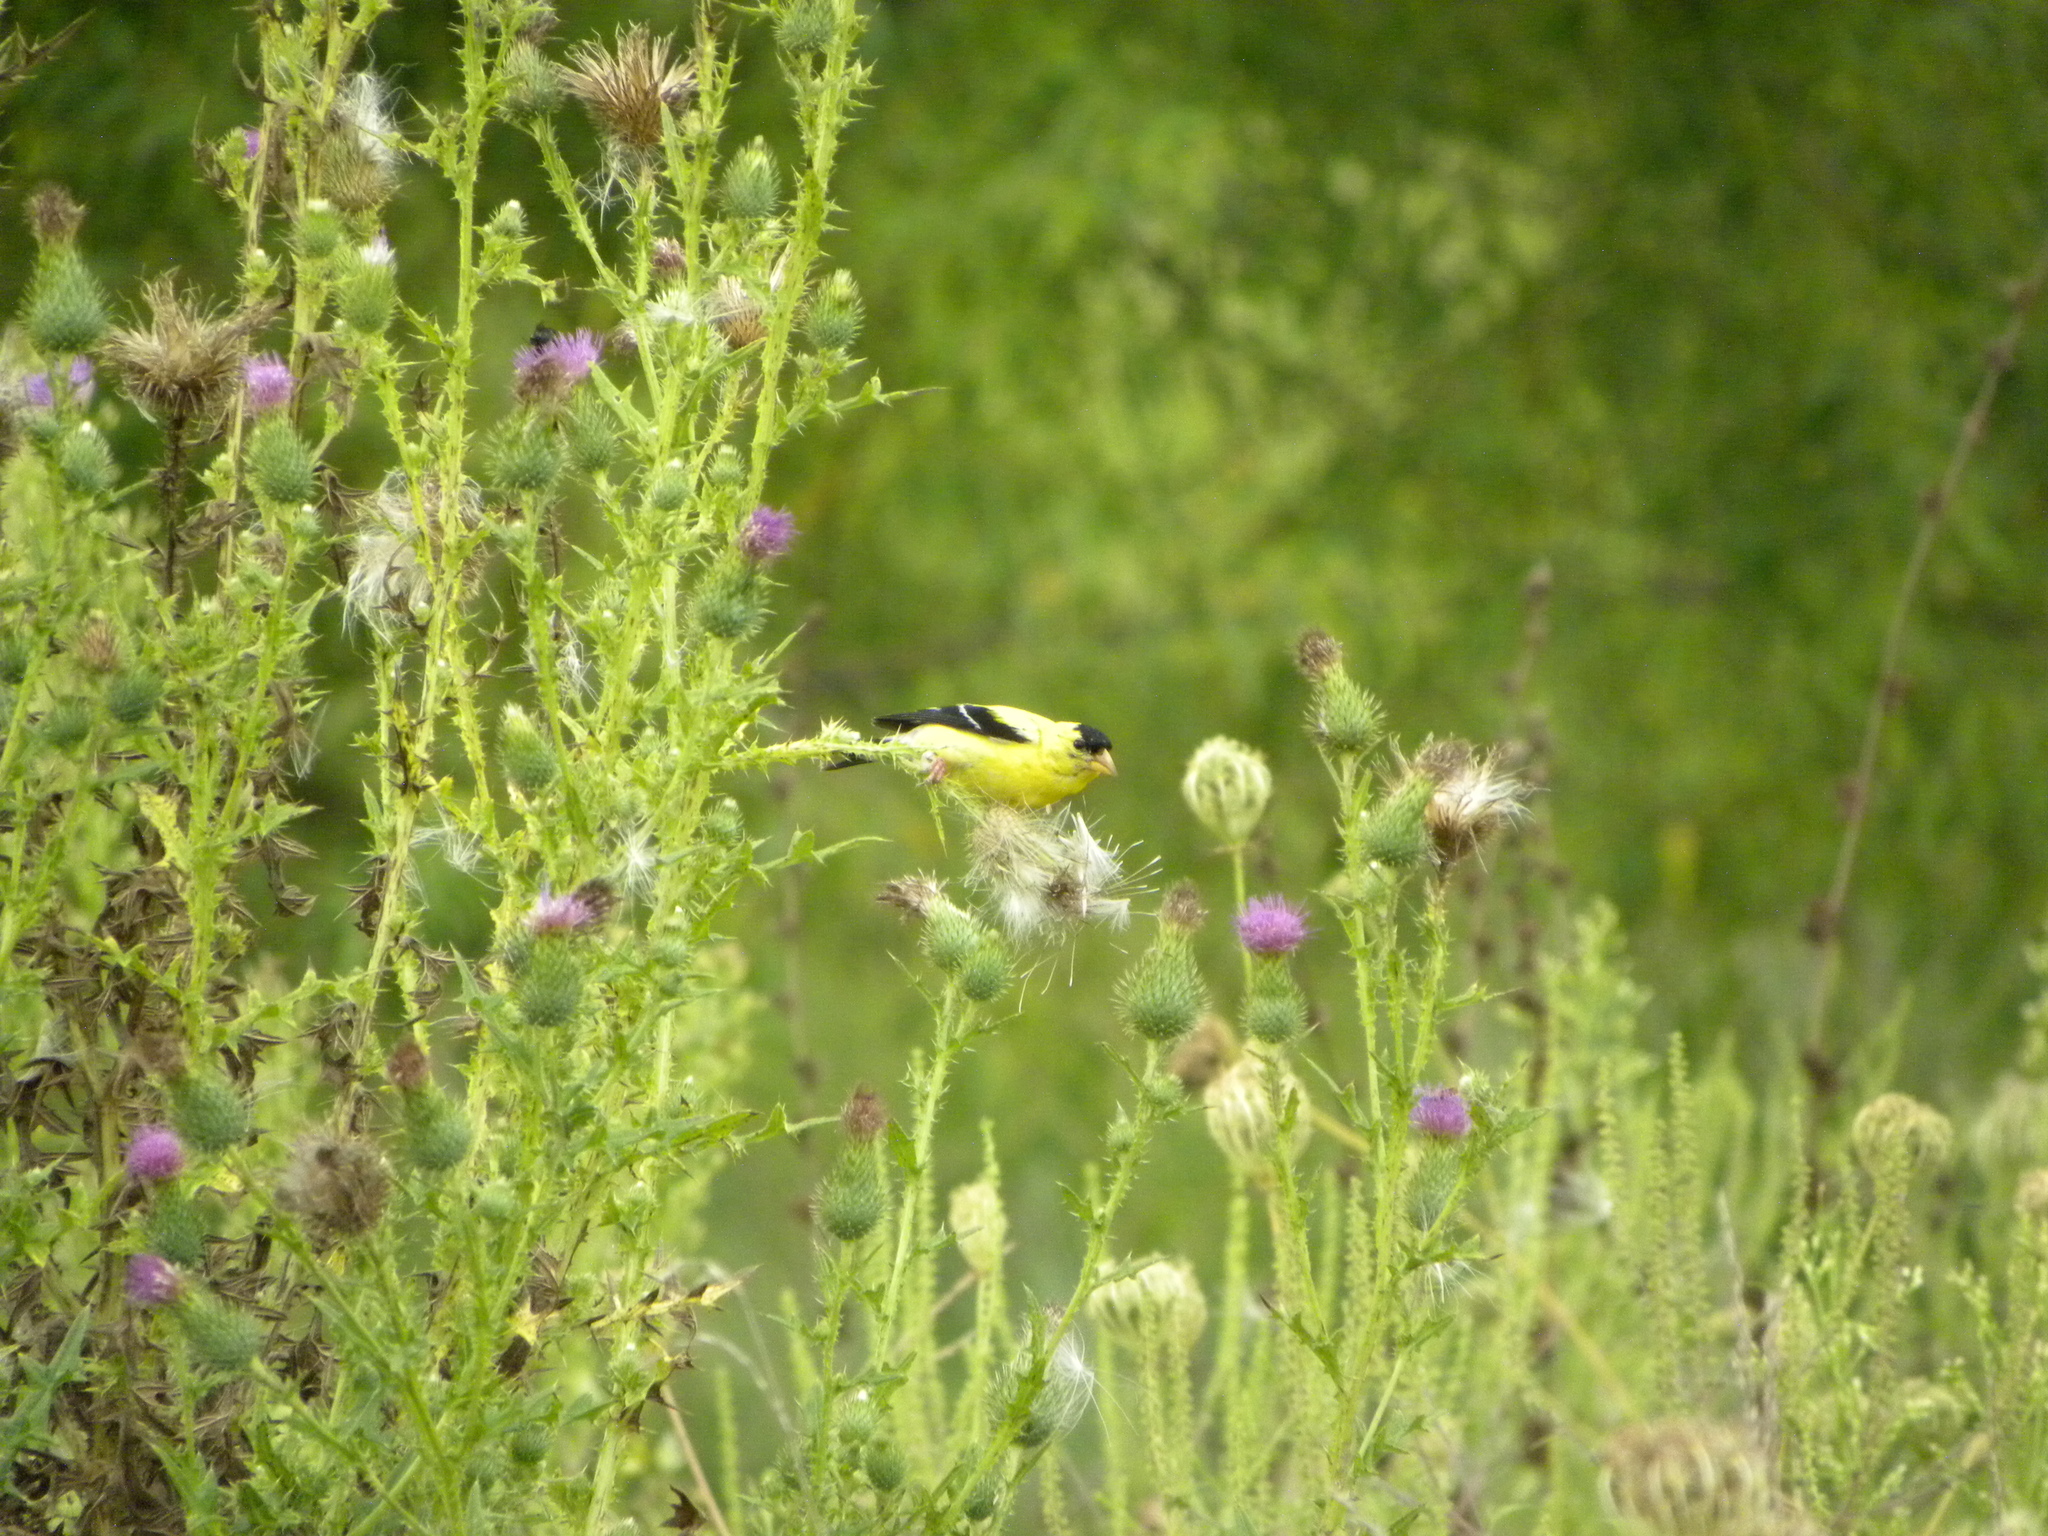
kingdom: Animalia
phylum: Chordata
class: Aves
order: Passeriformes
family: Fringillidae
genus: Spinus
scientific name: Spinus tristis
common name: American goldfinch
